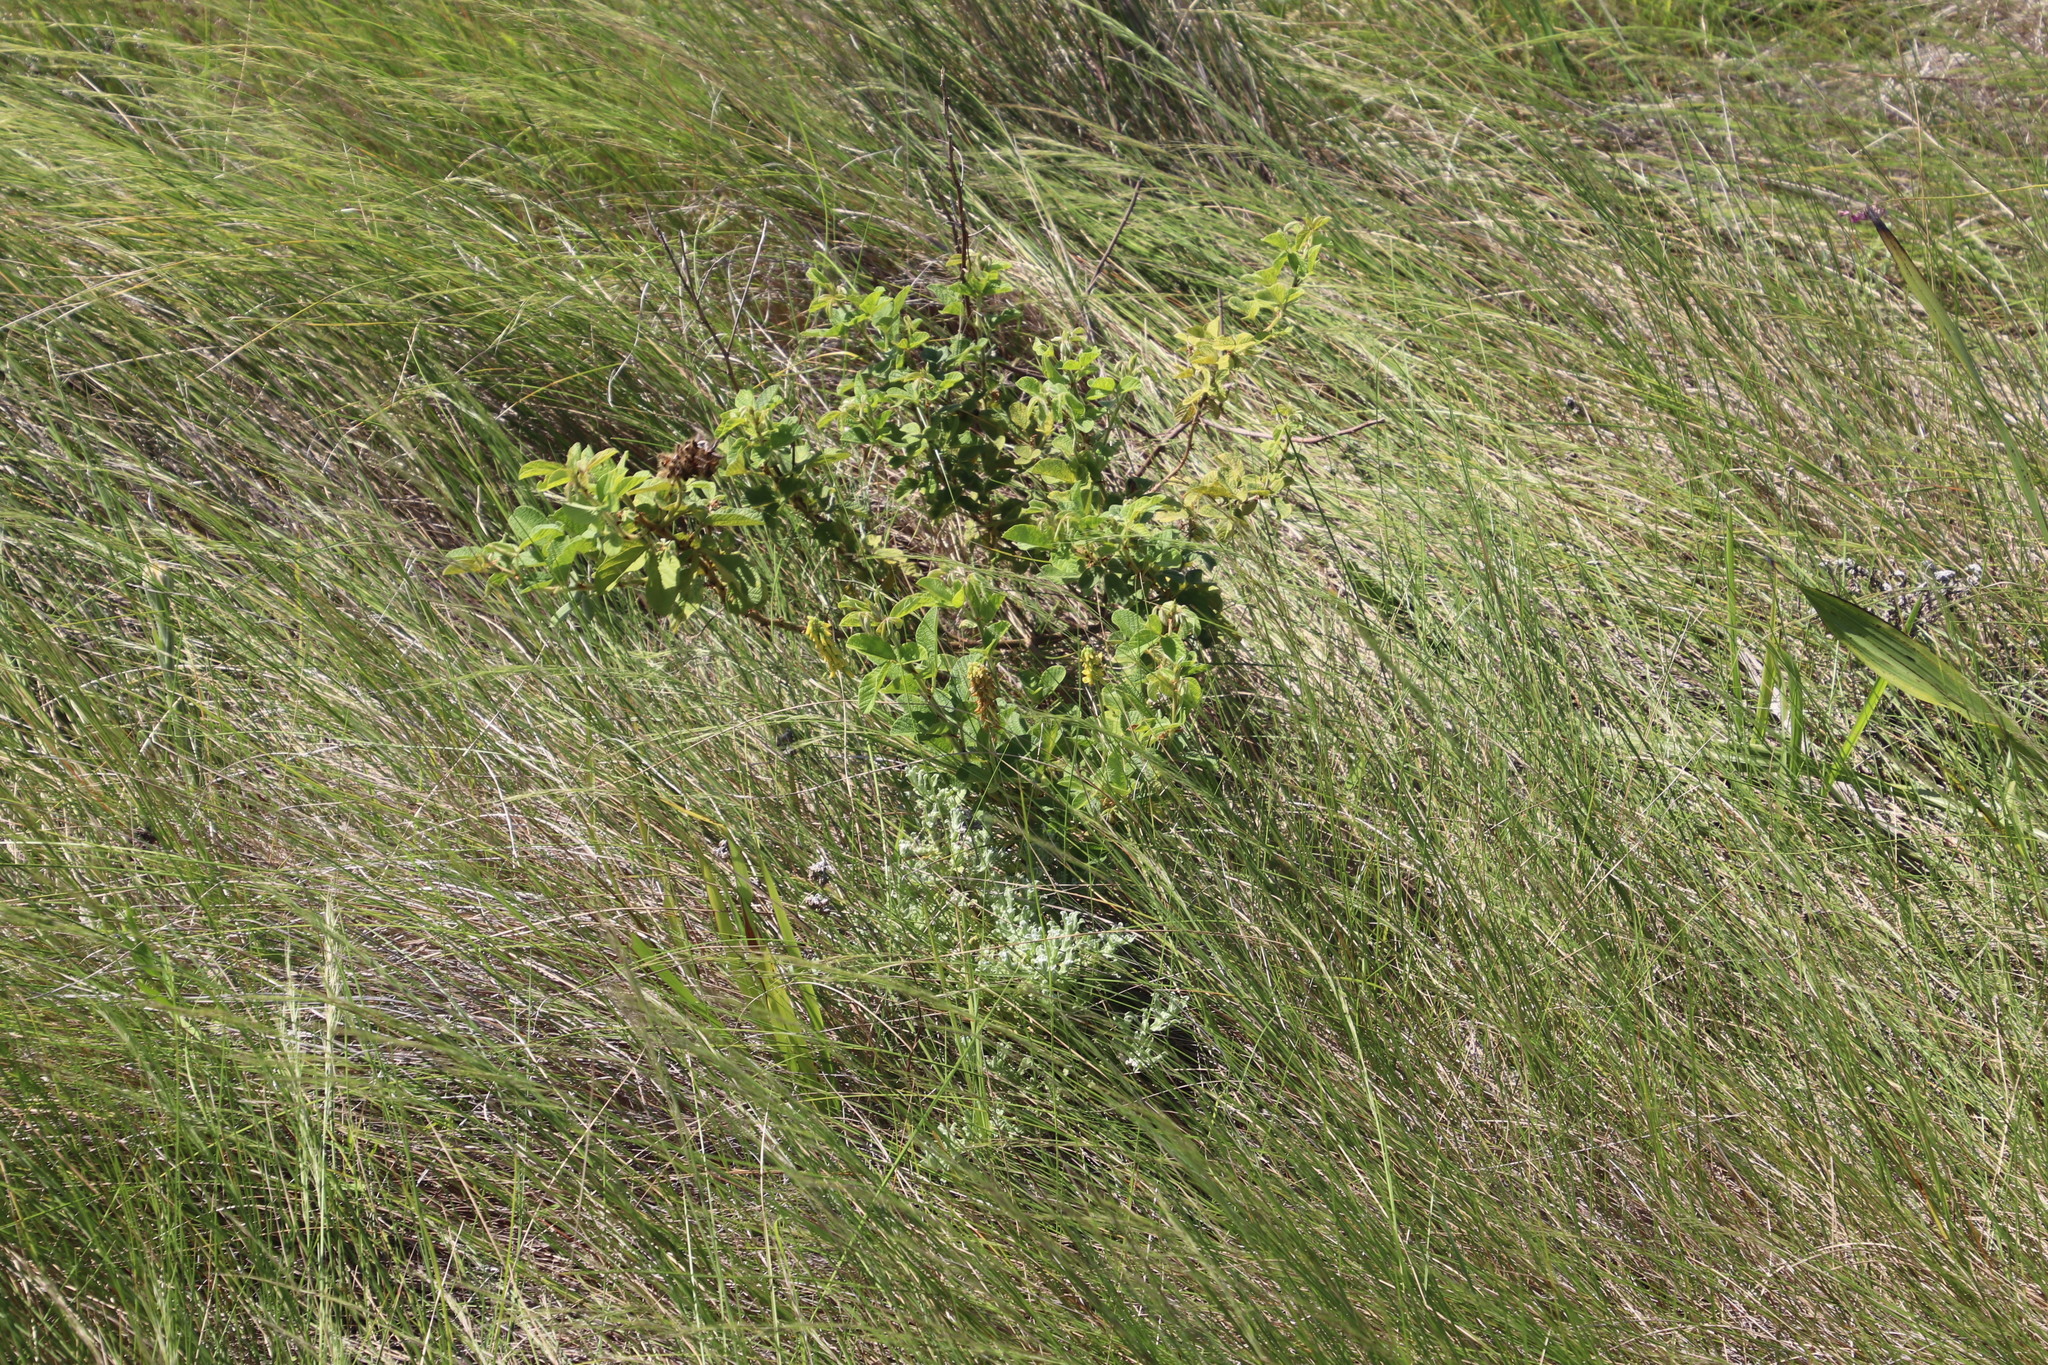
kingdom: Plantae
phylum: Tracheophyta
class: Magnoliopsida
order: Fabales
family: Fabaceae
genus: Eriosema
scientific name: Eriosema parviflorum
